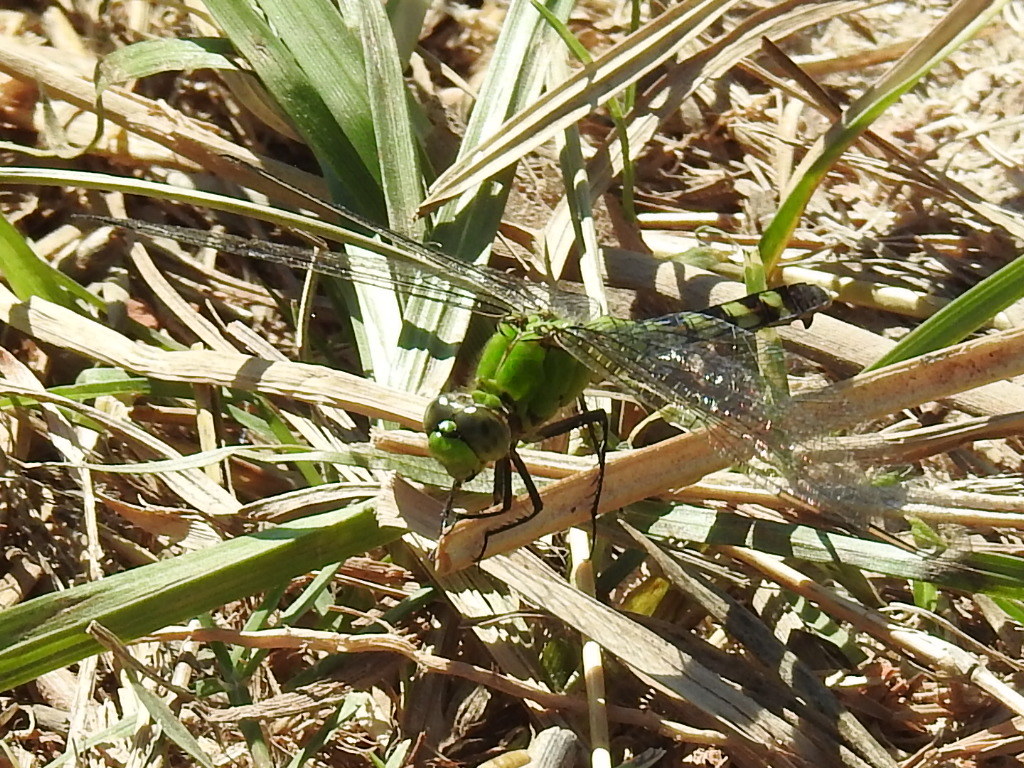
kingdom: Animalia
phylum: Arthropoda
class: Insecta
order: Odonata
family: Libellulidae
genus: Erythemis
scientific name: Erythemis simplicicollis
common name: Eastern pondhawk
